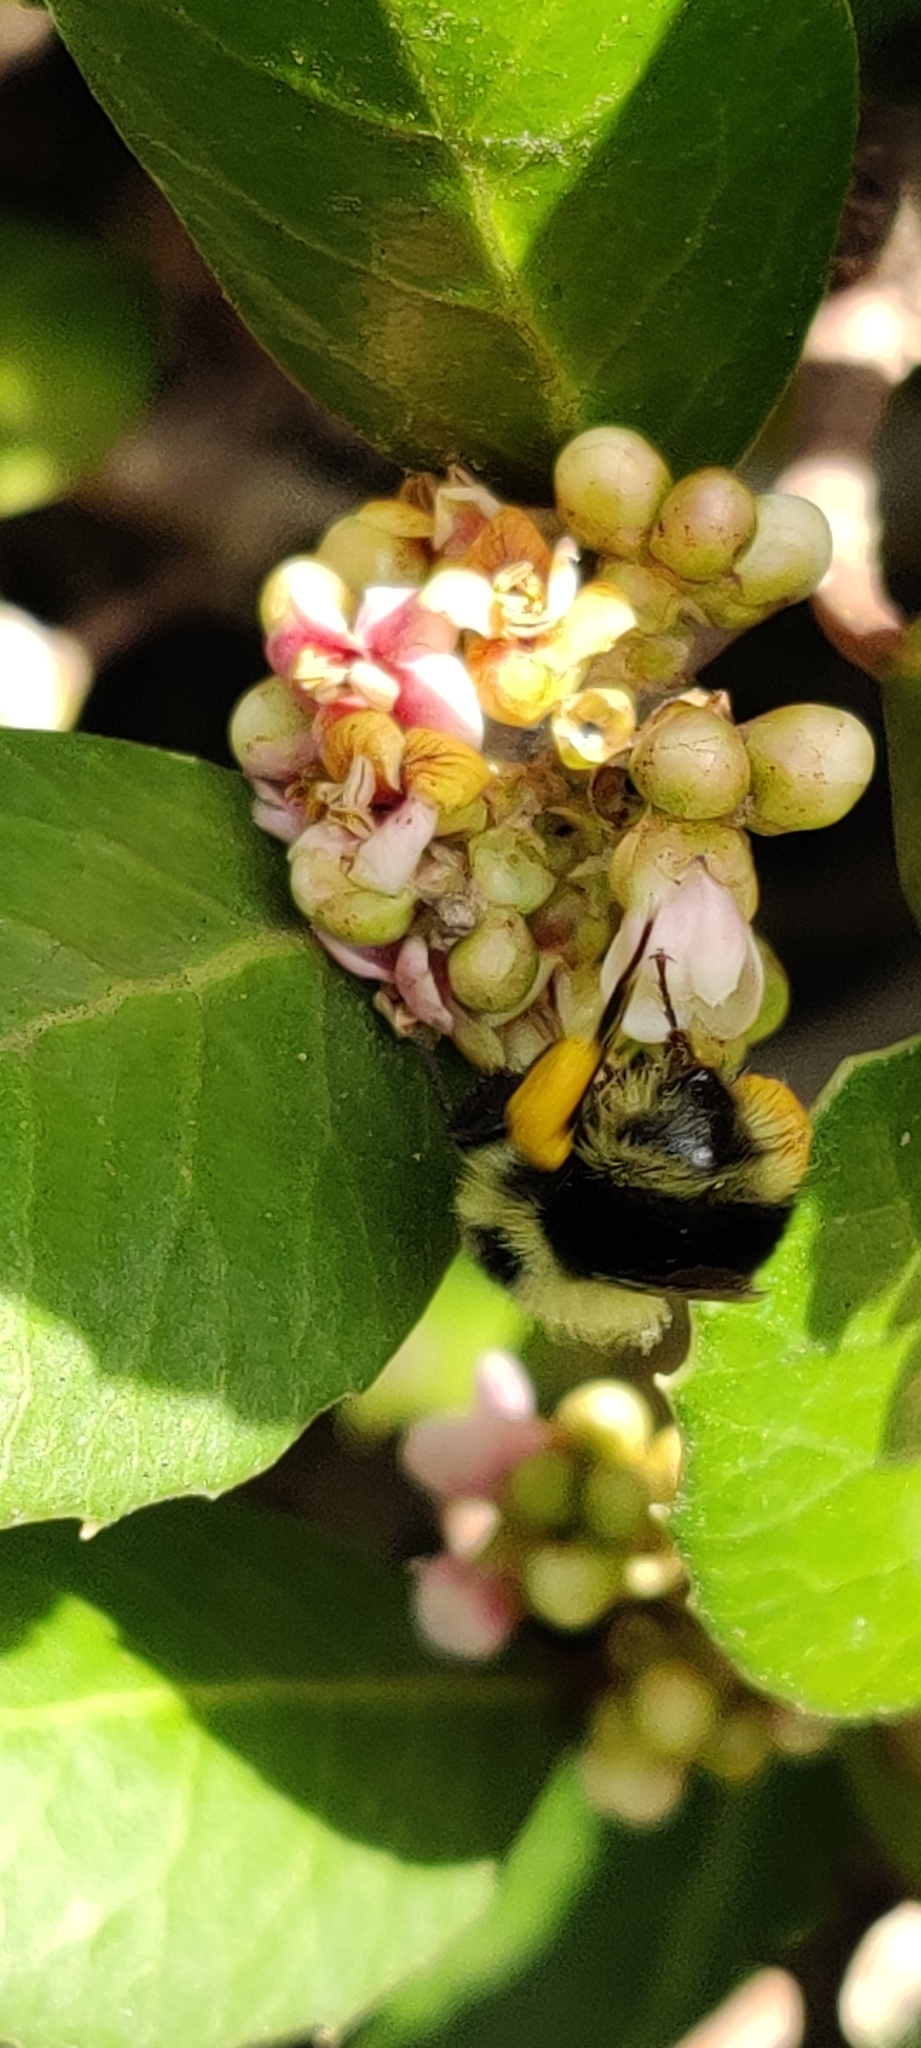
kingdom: Animalia
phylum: Arthropoda
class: Insecta
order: Hymenoptera
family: Apidae
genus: Bombus
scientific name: Bombus melanopygus
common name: Black tail bumble bee
